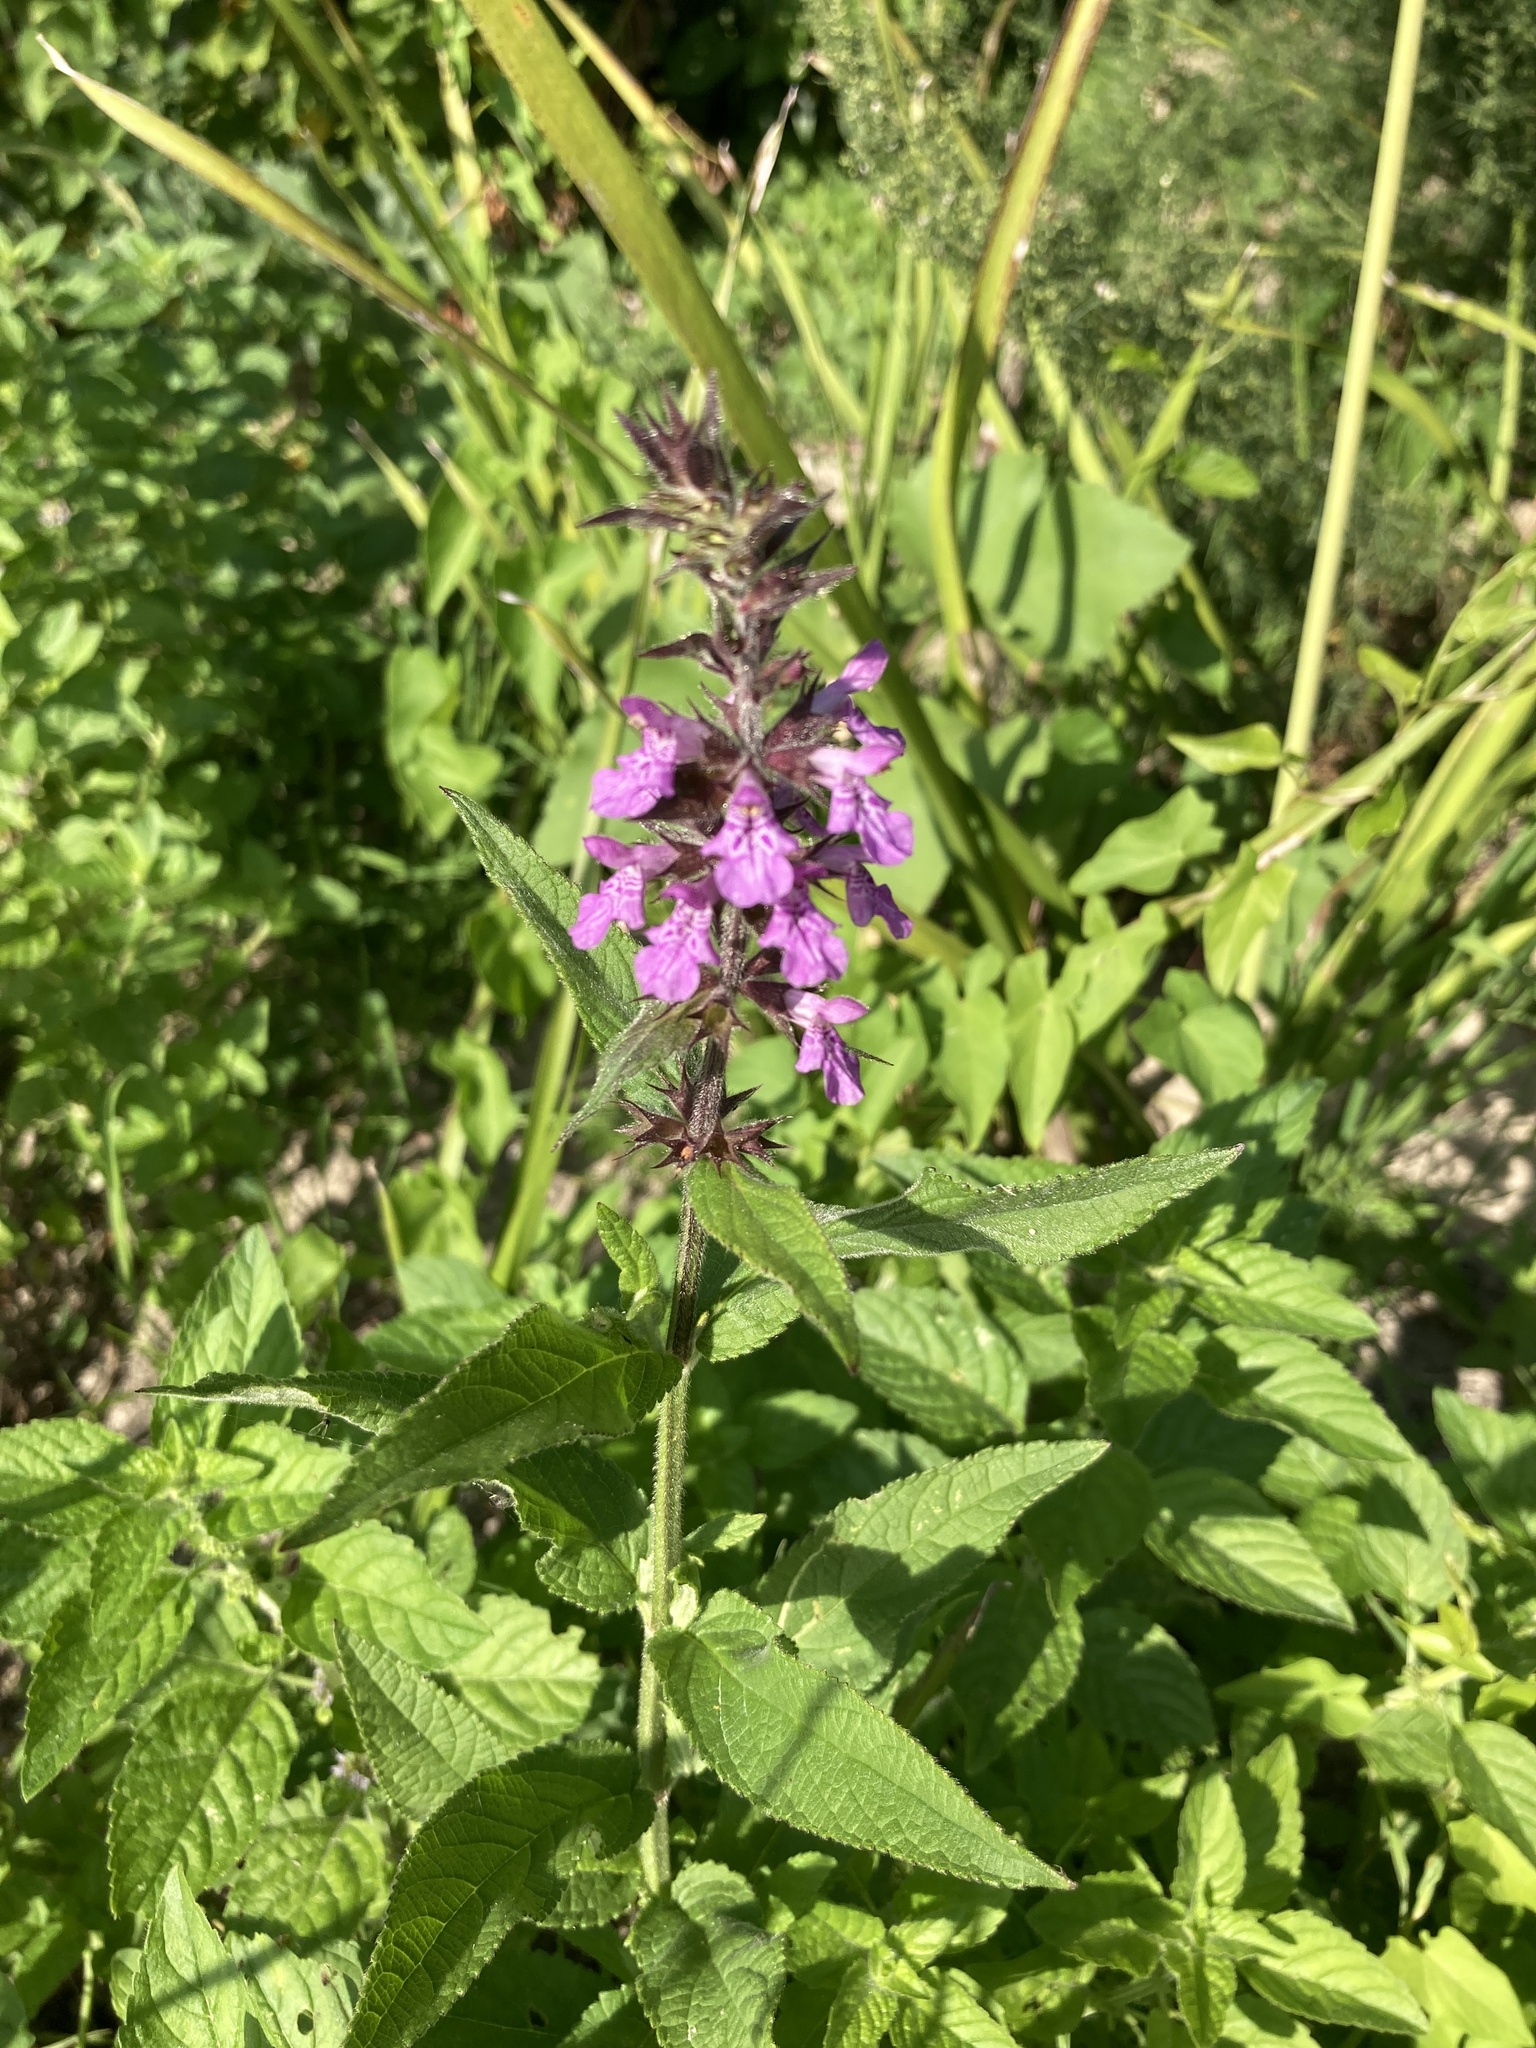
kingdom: Plantae
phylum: Tracheophyta
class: Magnoliopsida
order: Lamiales
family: Lamiaceae
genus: Stachys
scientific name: Stachys palustris
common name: Marsh woundwort
